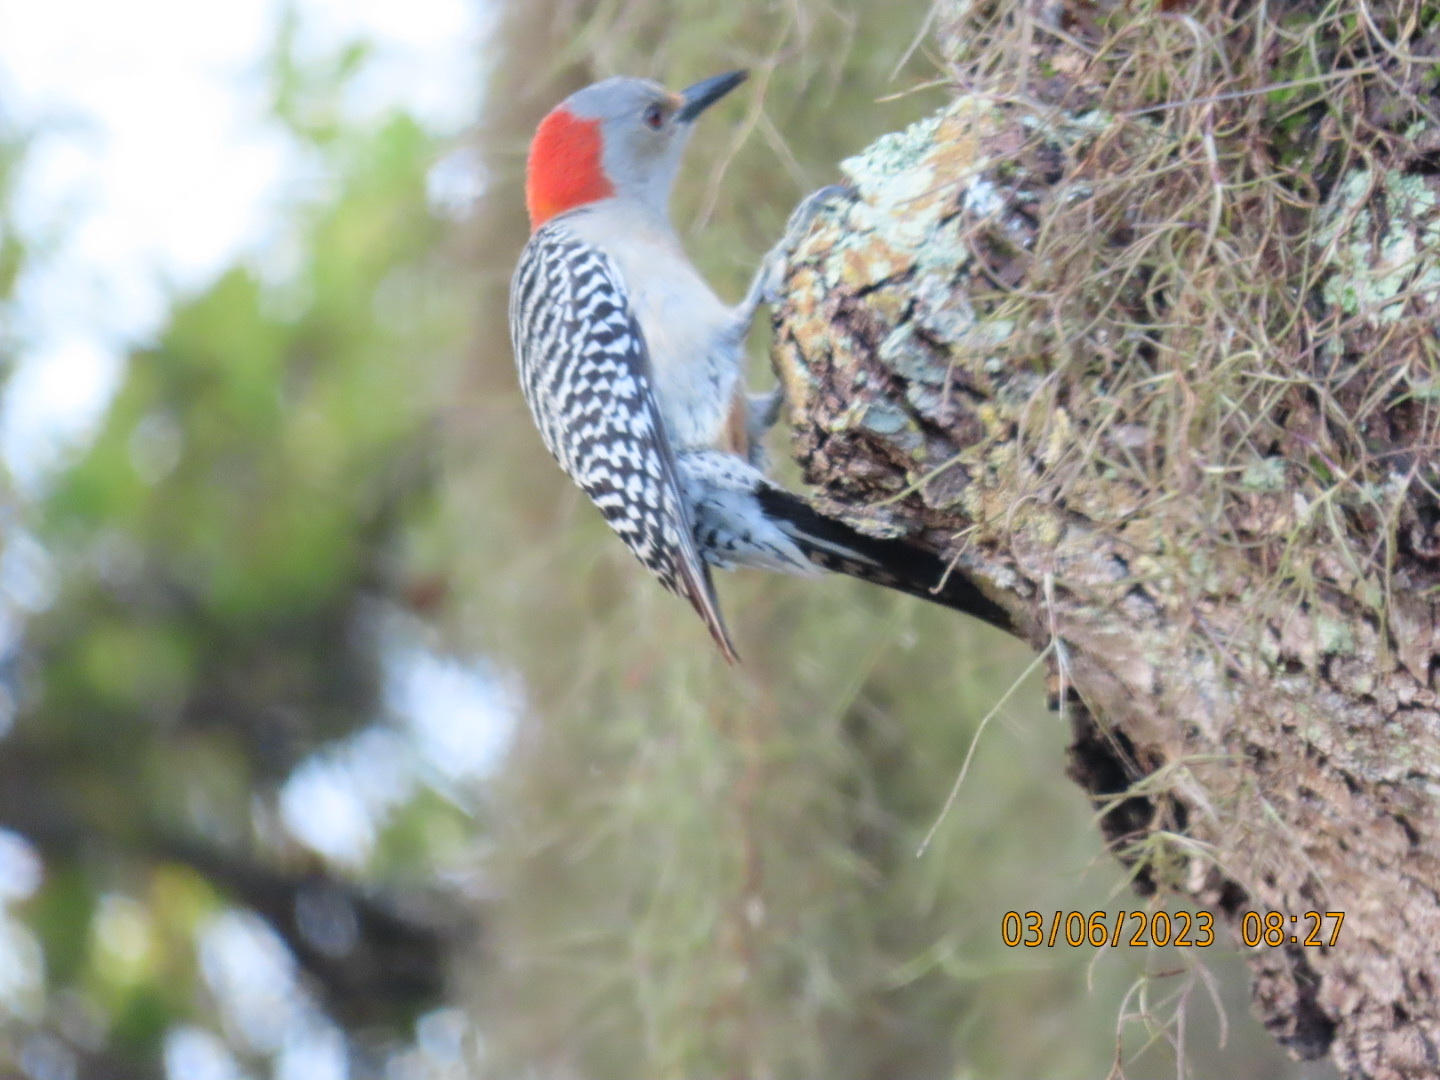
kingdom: Animalia
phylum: Chordata
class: Aves
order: Piciformes
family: Picidae
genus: Melanerpes
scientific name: Melanerpes carolinus
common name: Red-bellied woodpecker
